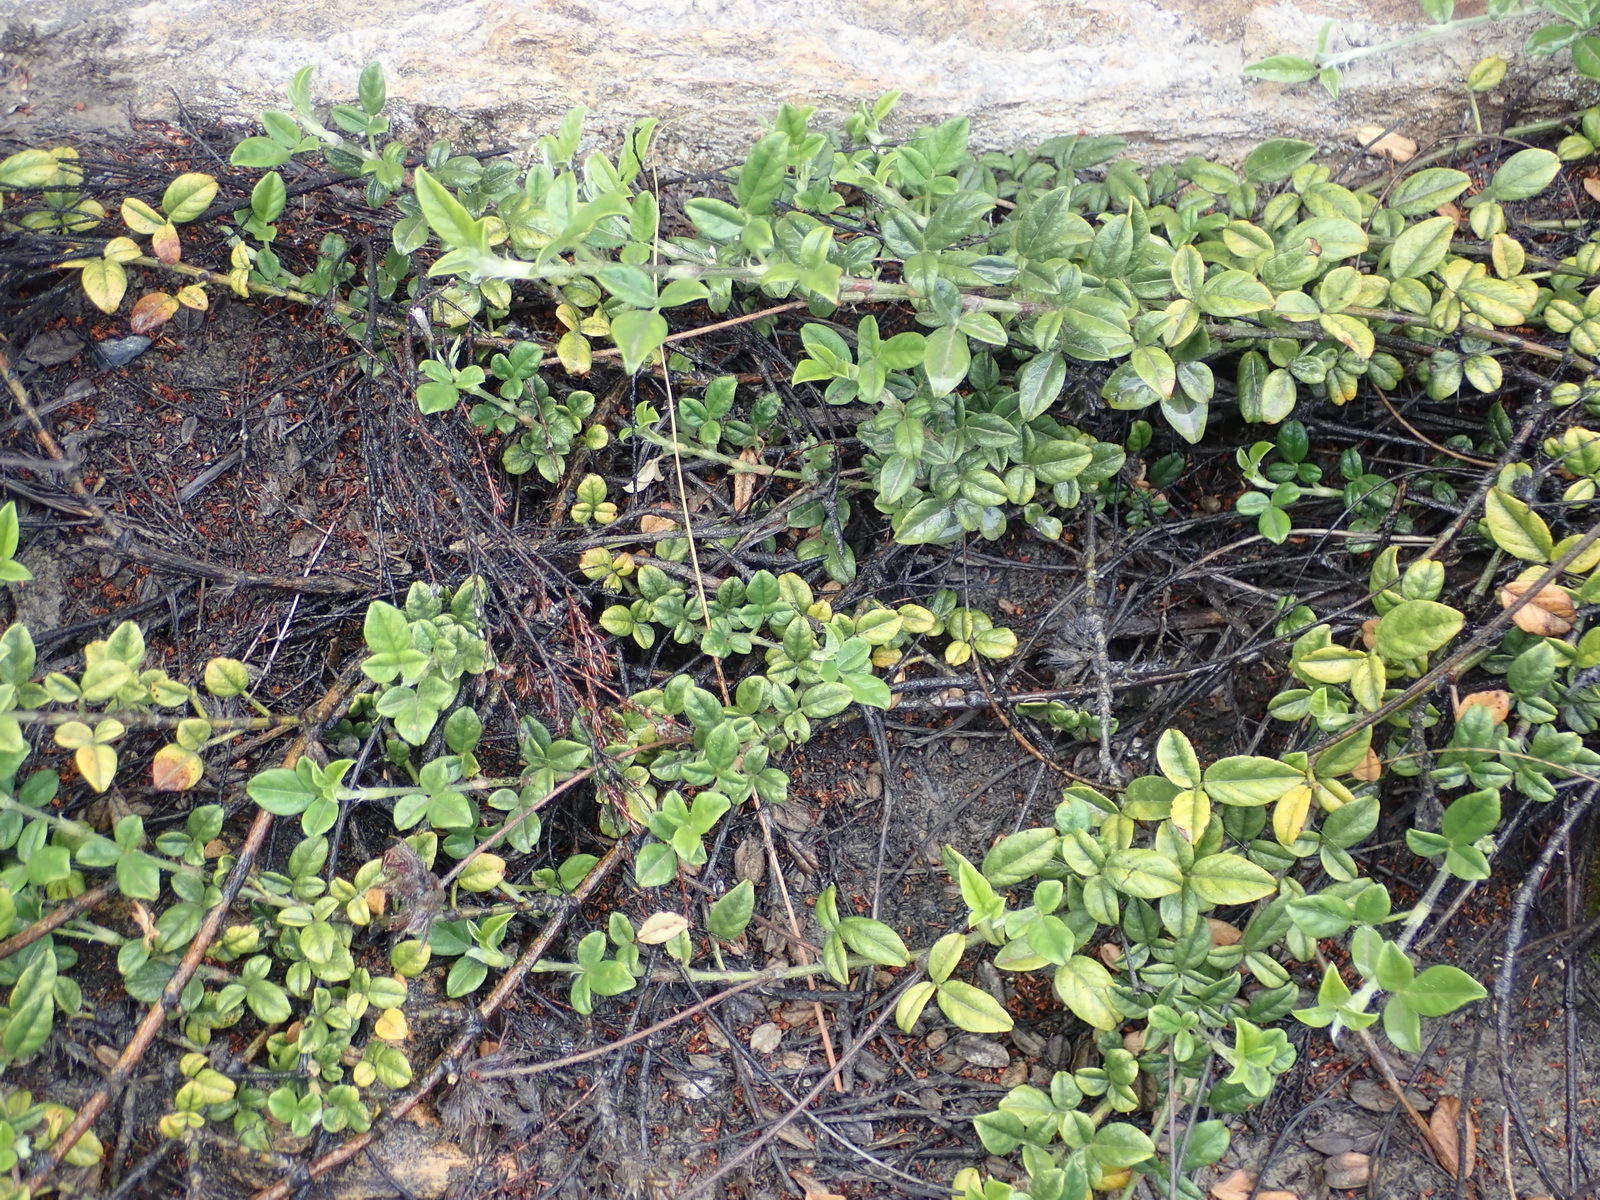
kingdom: Plantae
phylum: Tracheophyta
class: Magnoliopsida
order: Fabales
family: Fabaceae
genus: Psoralea
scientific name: Psoralea swartbergensis
